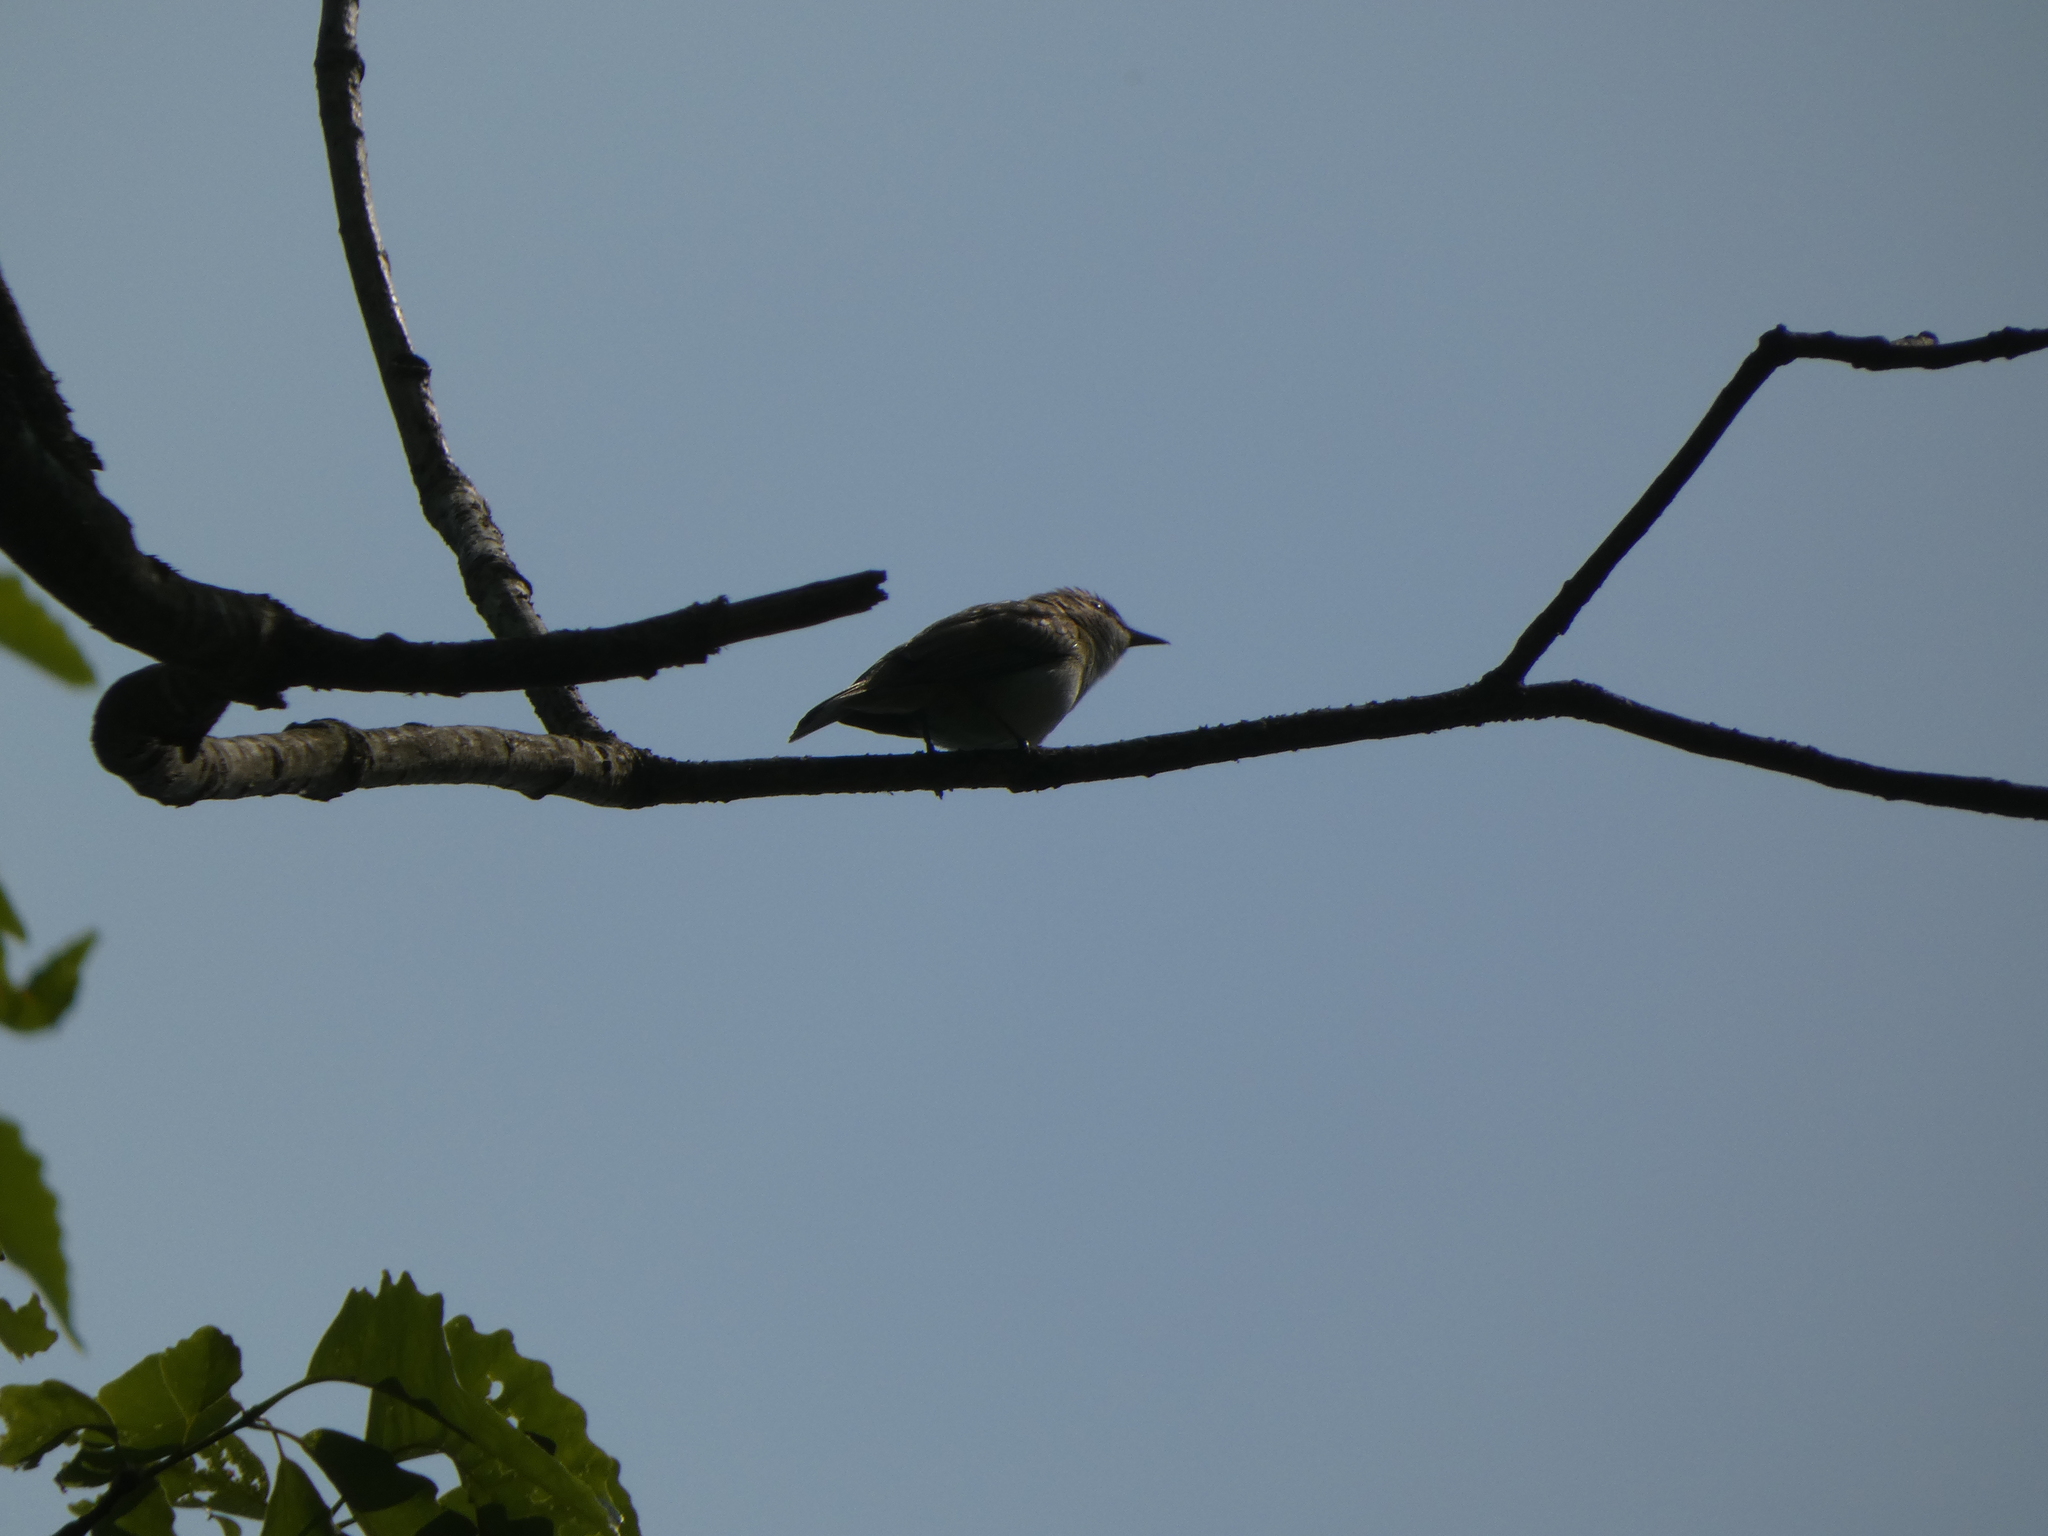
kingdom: Animalia
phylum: Chordata
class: Aves
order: Passeriformes
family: Vireonidae
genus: Vireo
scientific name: Vireo olivaceus
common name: Red-eyed vireo
